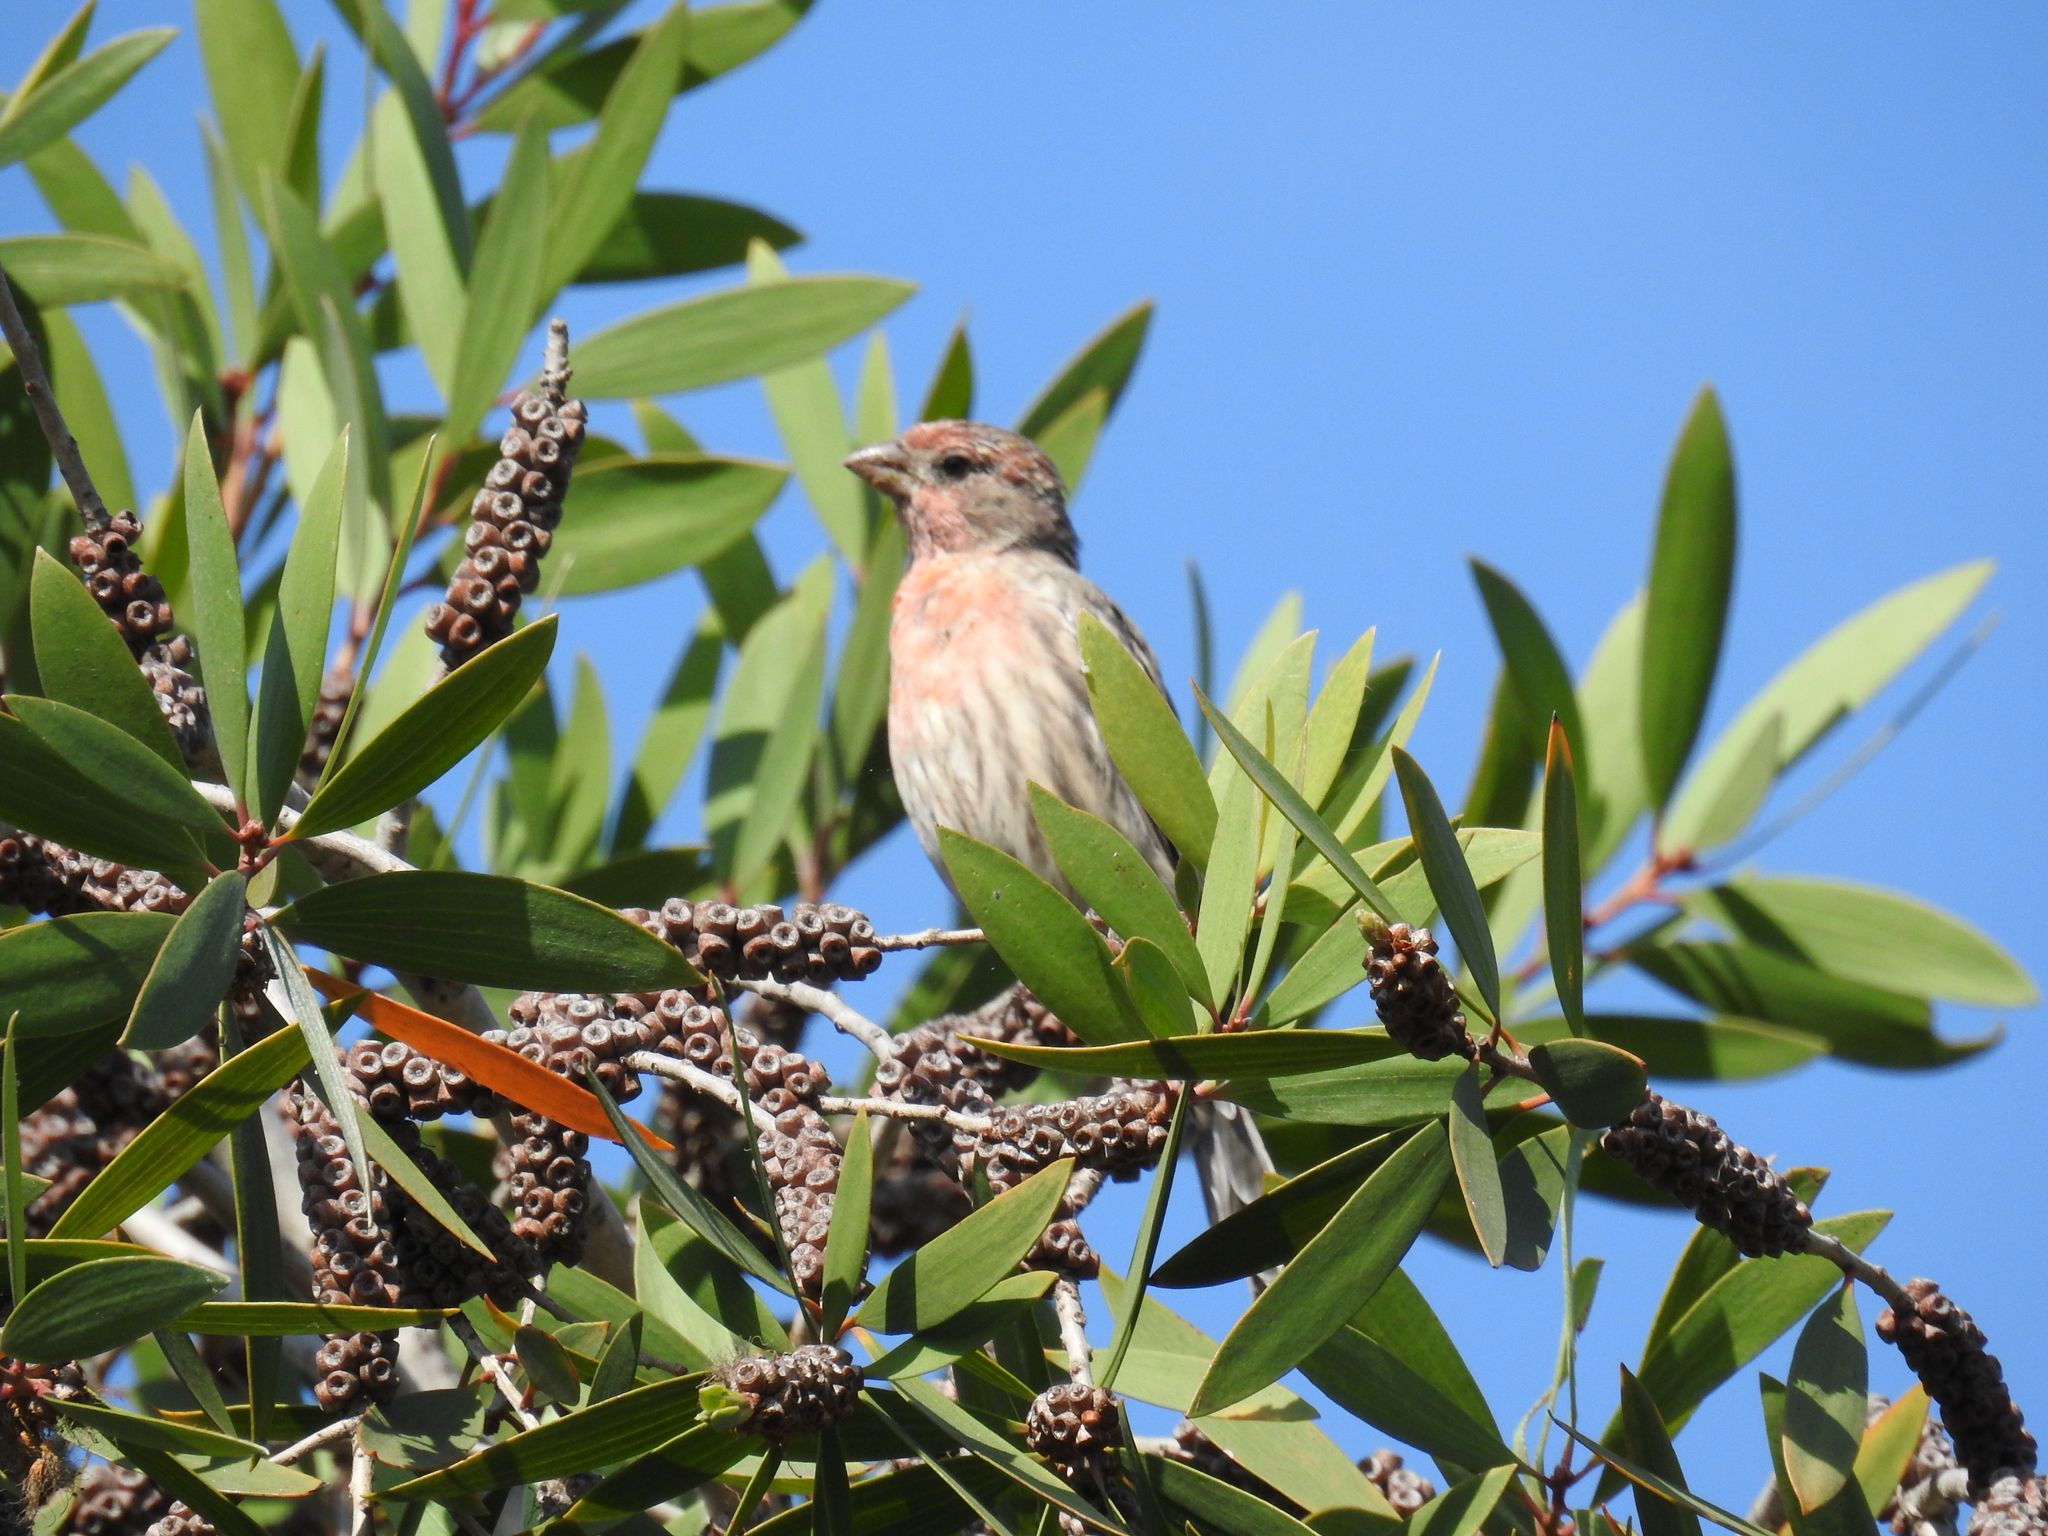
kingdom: Animalia
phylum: Chordata
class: Aves
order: Passeriformes
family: Fringillidae
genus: Haemorhous
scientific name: Haemorhous mexicanus
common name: House finch
